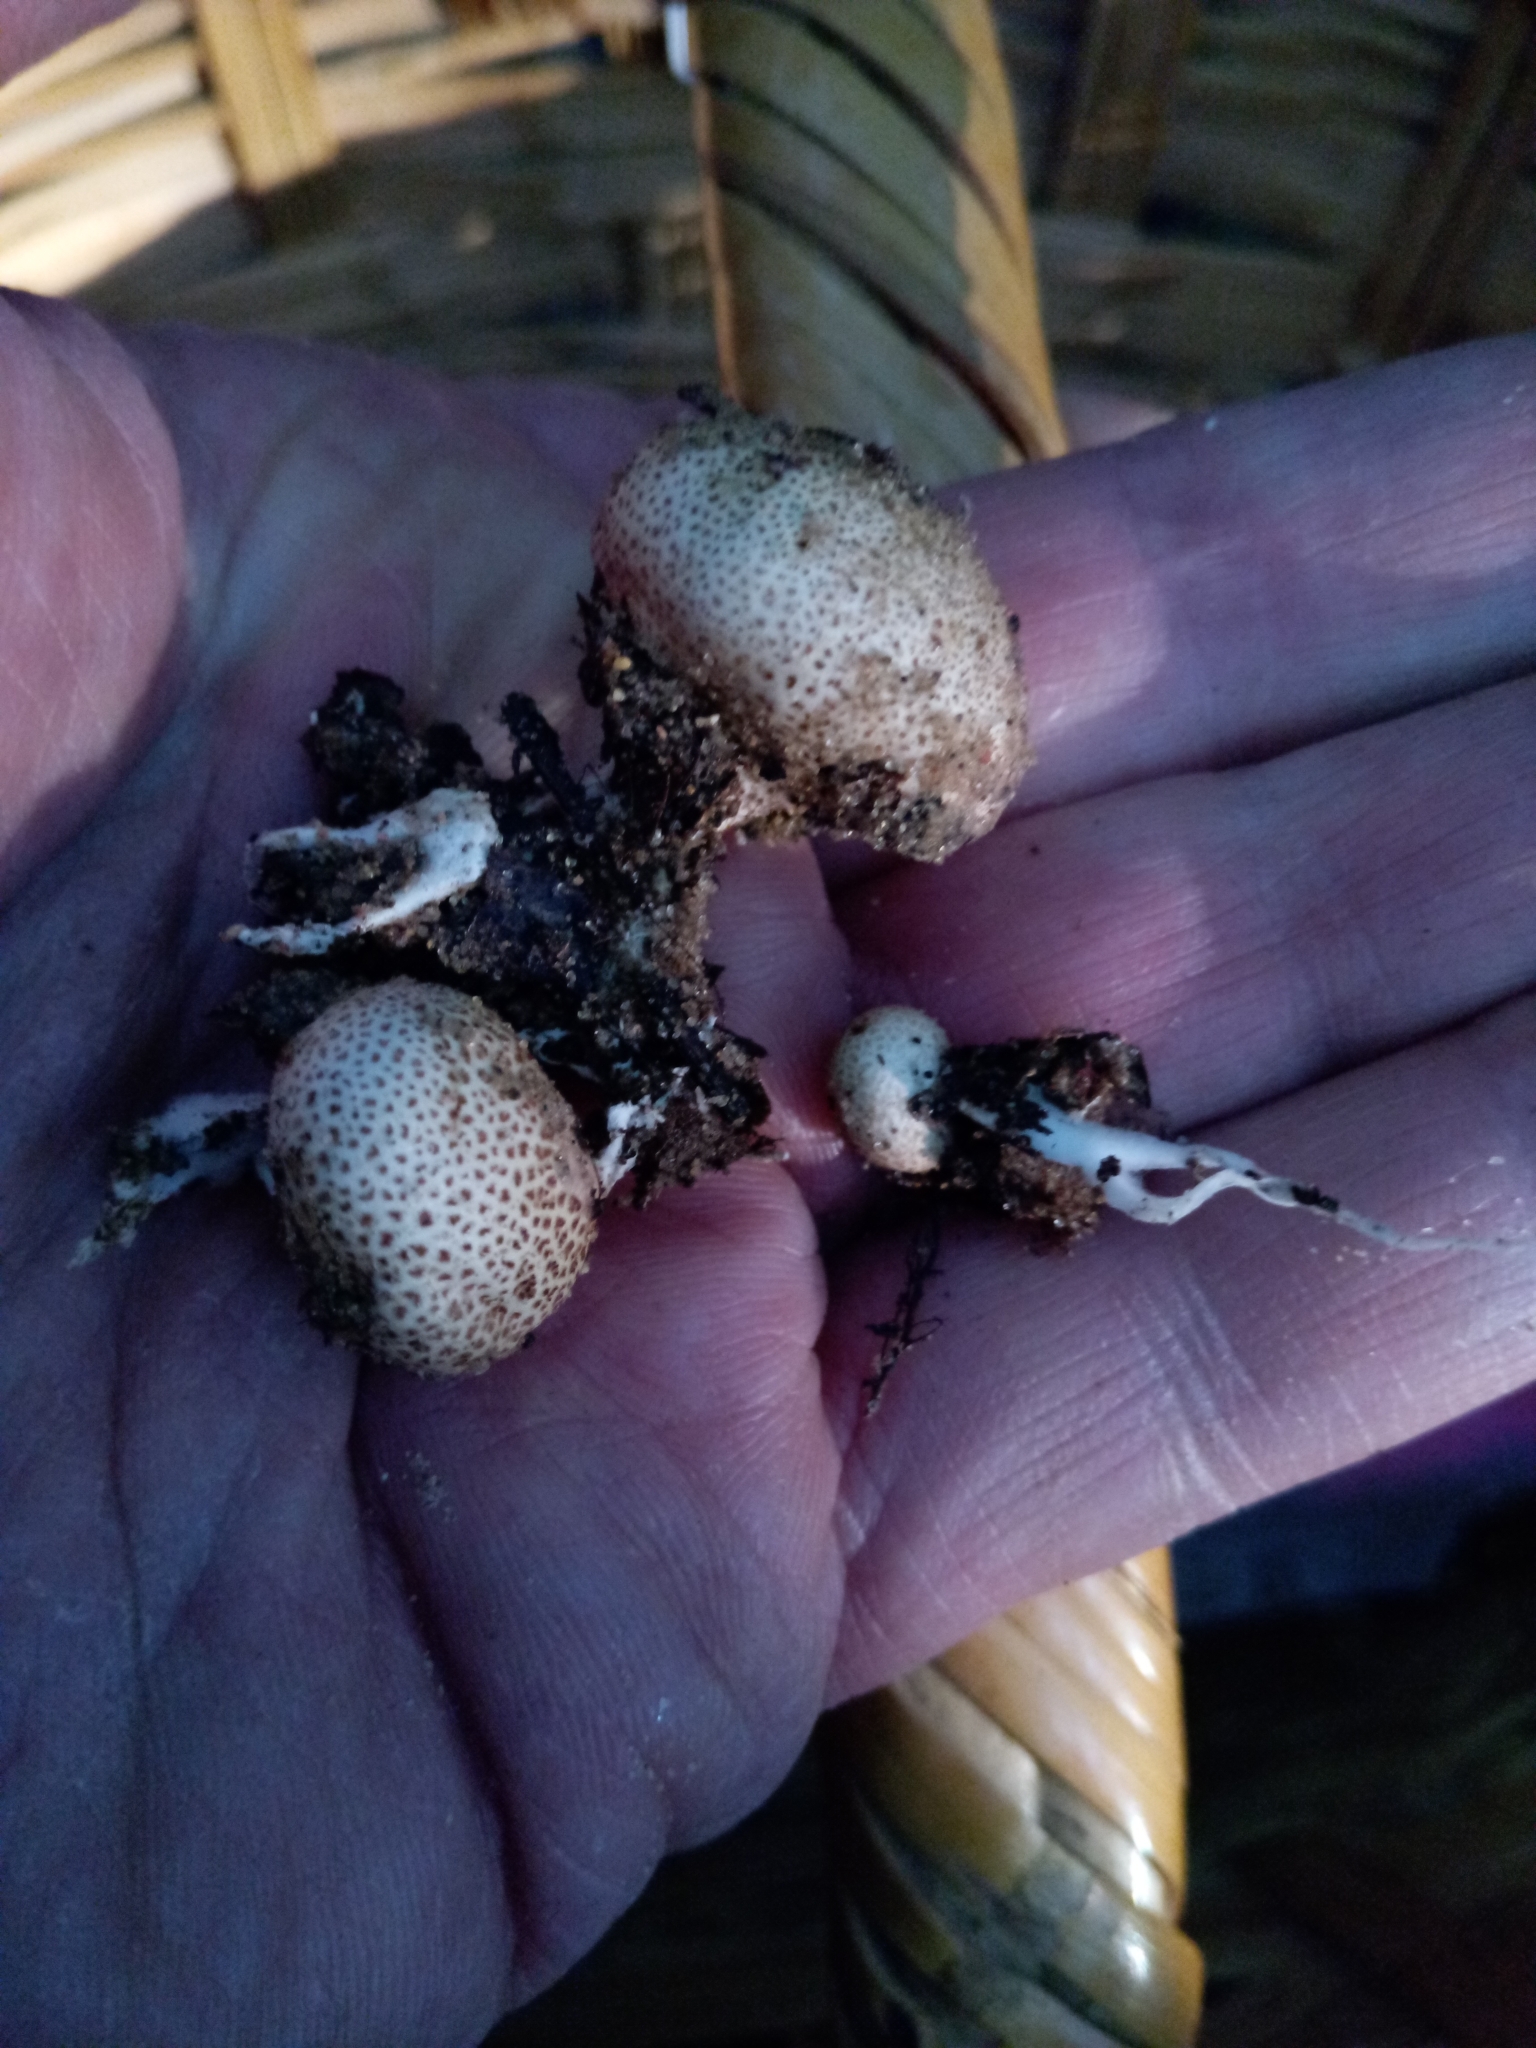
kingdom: Fungi
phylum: Basidiomycota
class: Agaricomycetes
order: Boletales
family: Sclerodermataceae
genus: Scleroderma
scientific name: Scleroderma areolatum
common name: Leopard earthball
